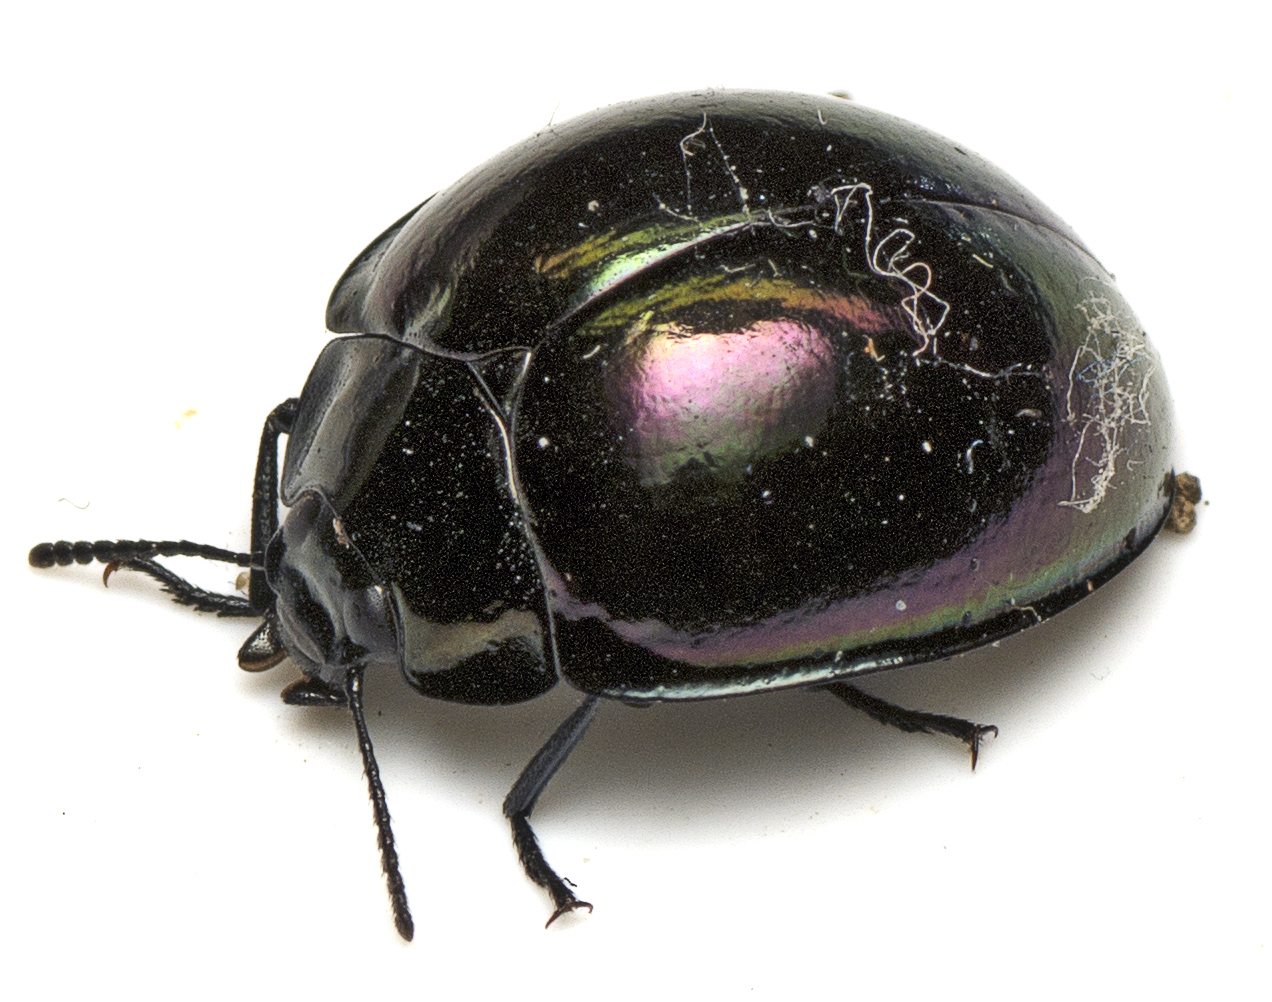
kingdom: Animalia
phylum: Arthropoda
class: Insecta
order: Coleoptera
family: Tenebrionidae
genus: Hemicyclus
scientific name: Hemicyclus
